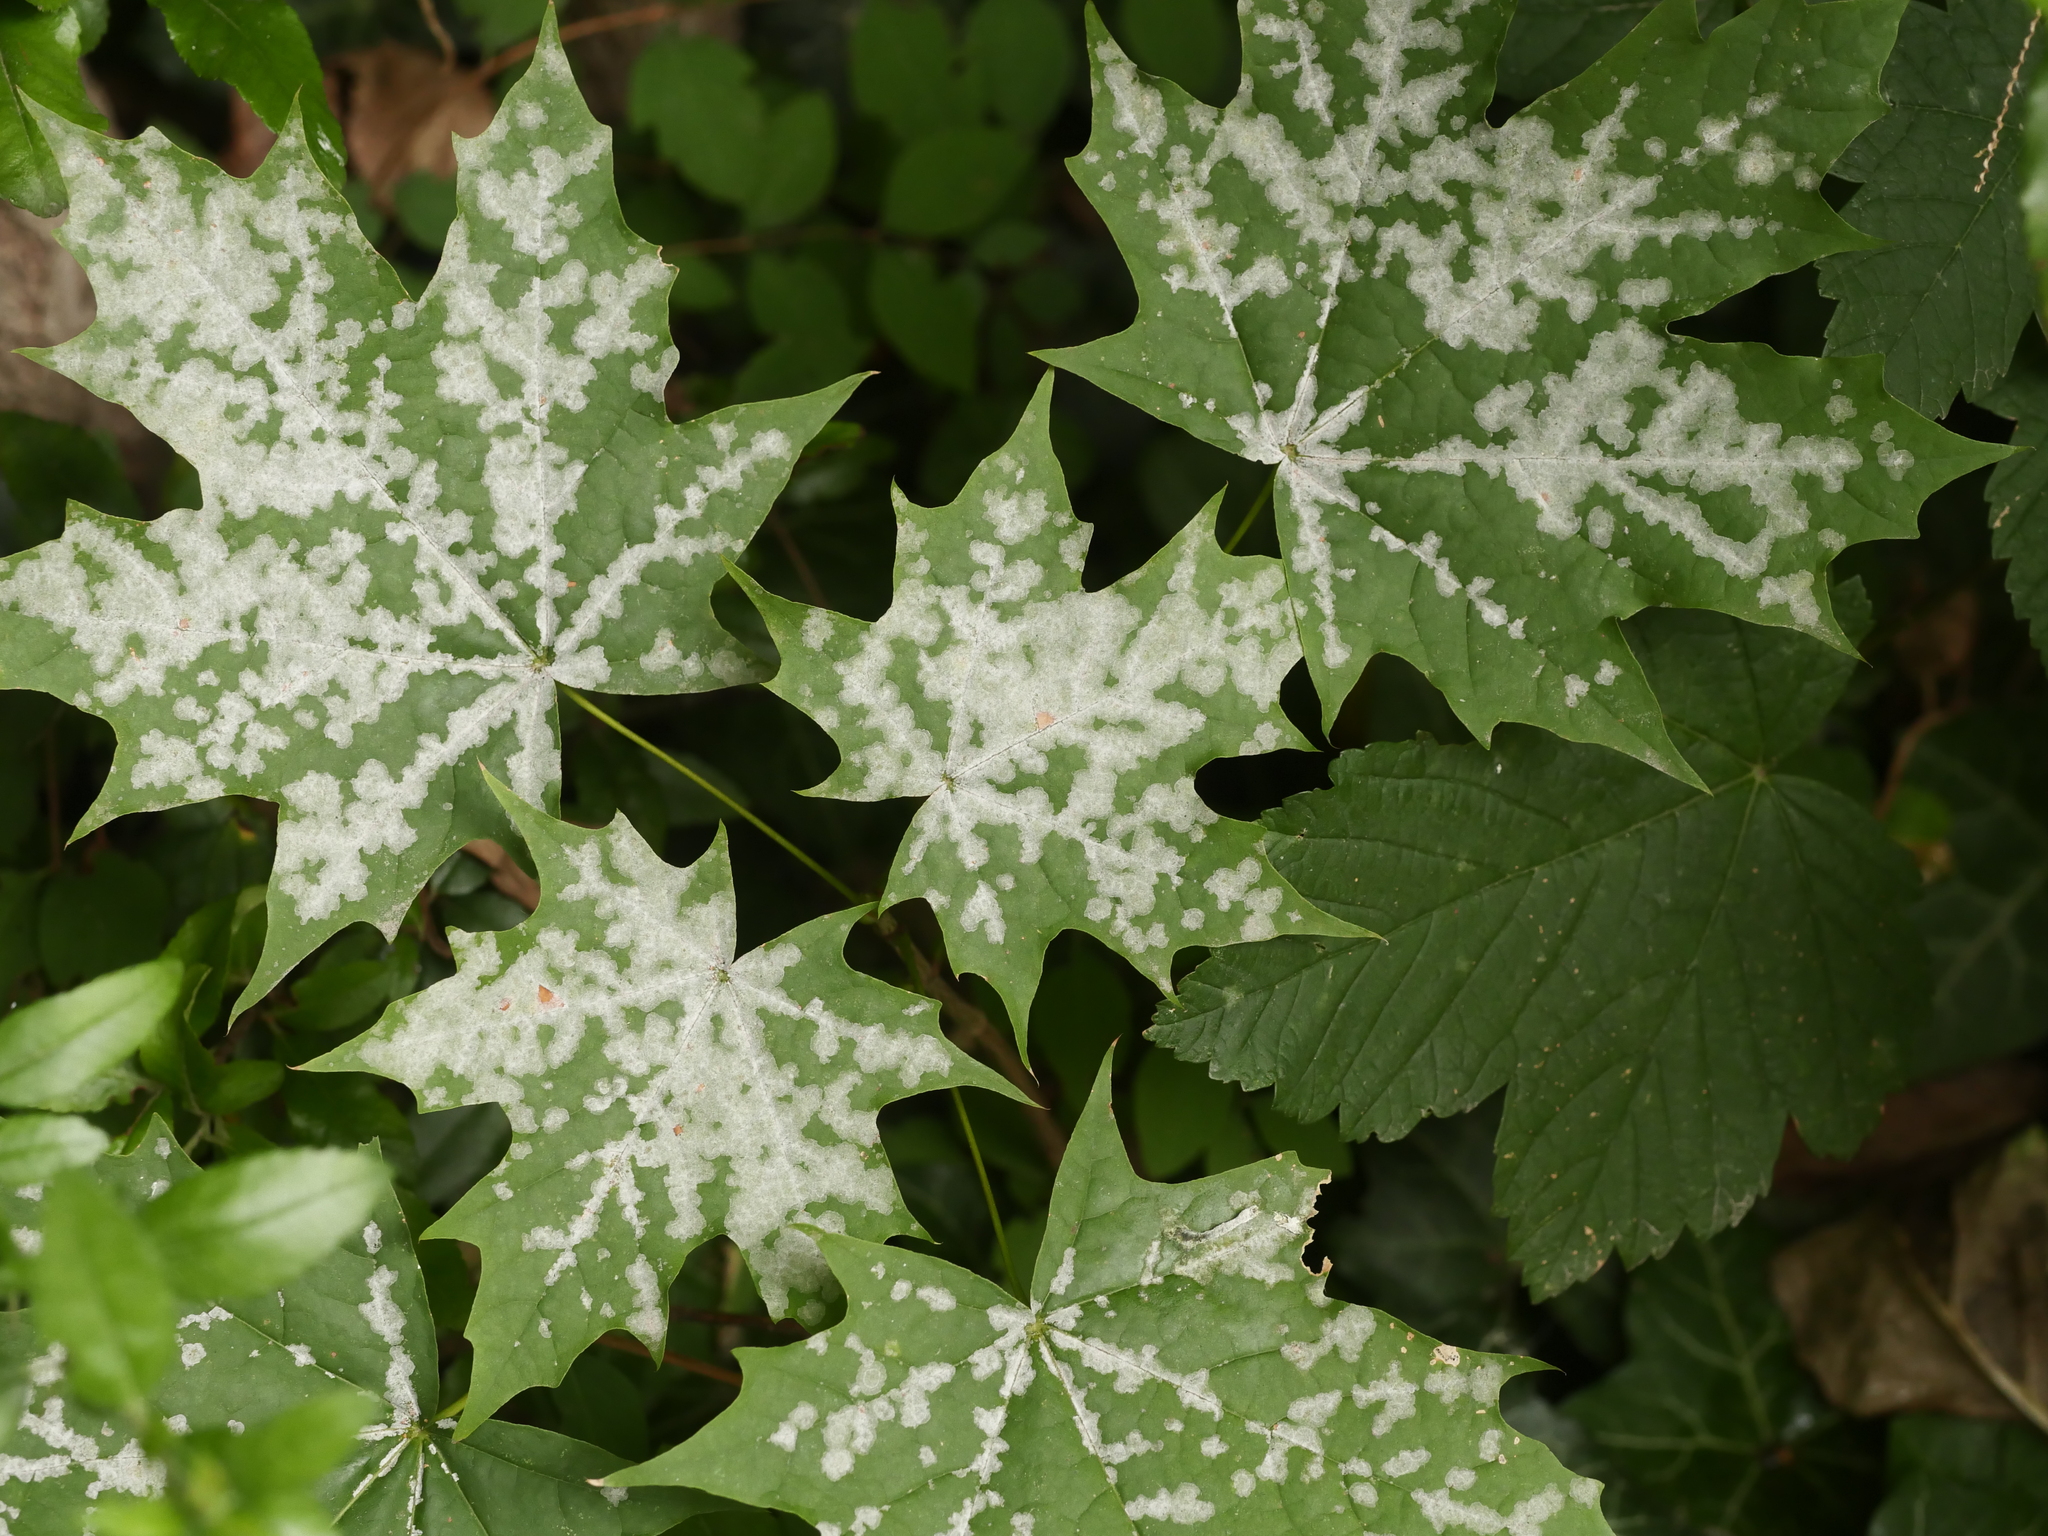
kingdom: Plantae
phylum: Tracheophyta
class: Magnoliopsida
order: Sapindales
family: Sapindaceae
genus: Acer
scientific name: Acer platanoides
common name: Norway maple
